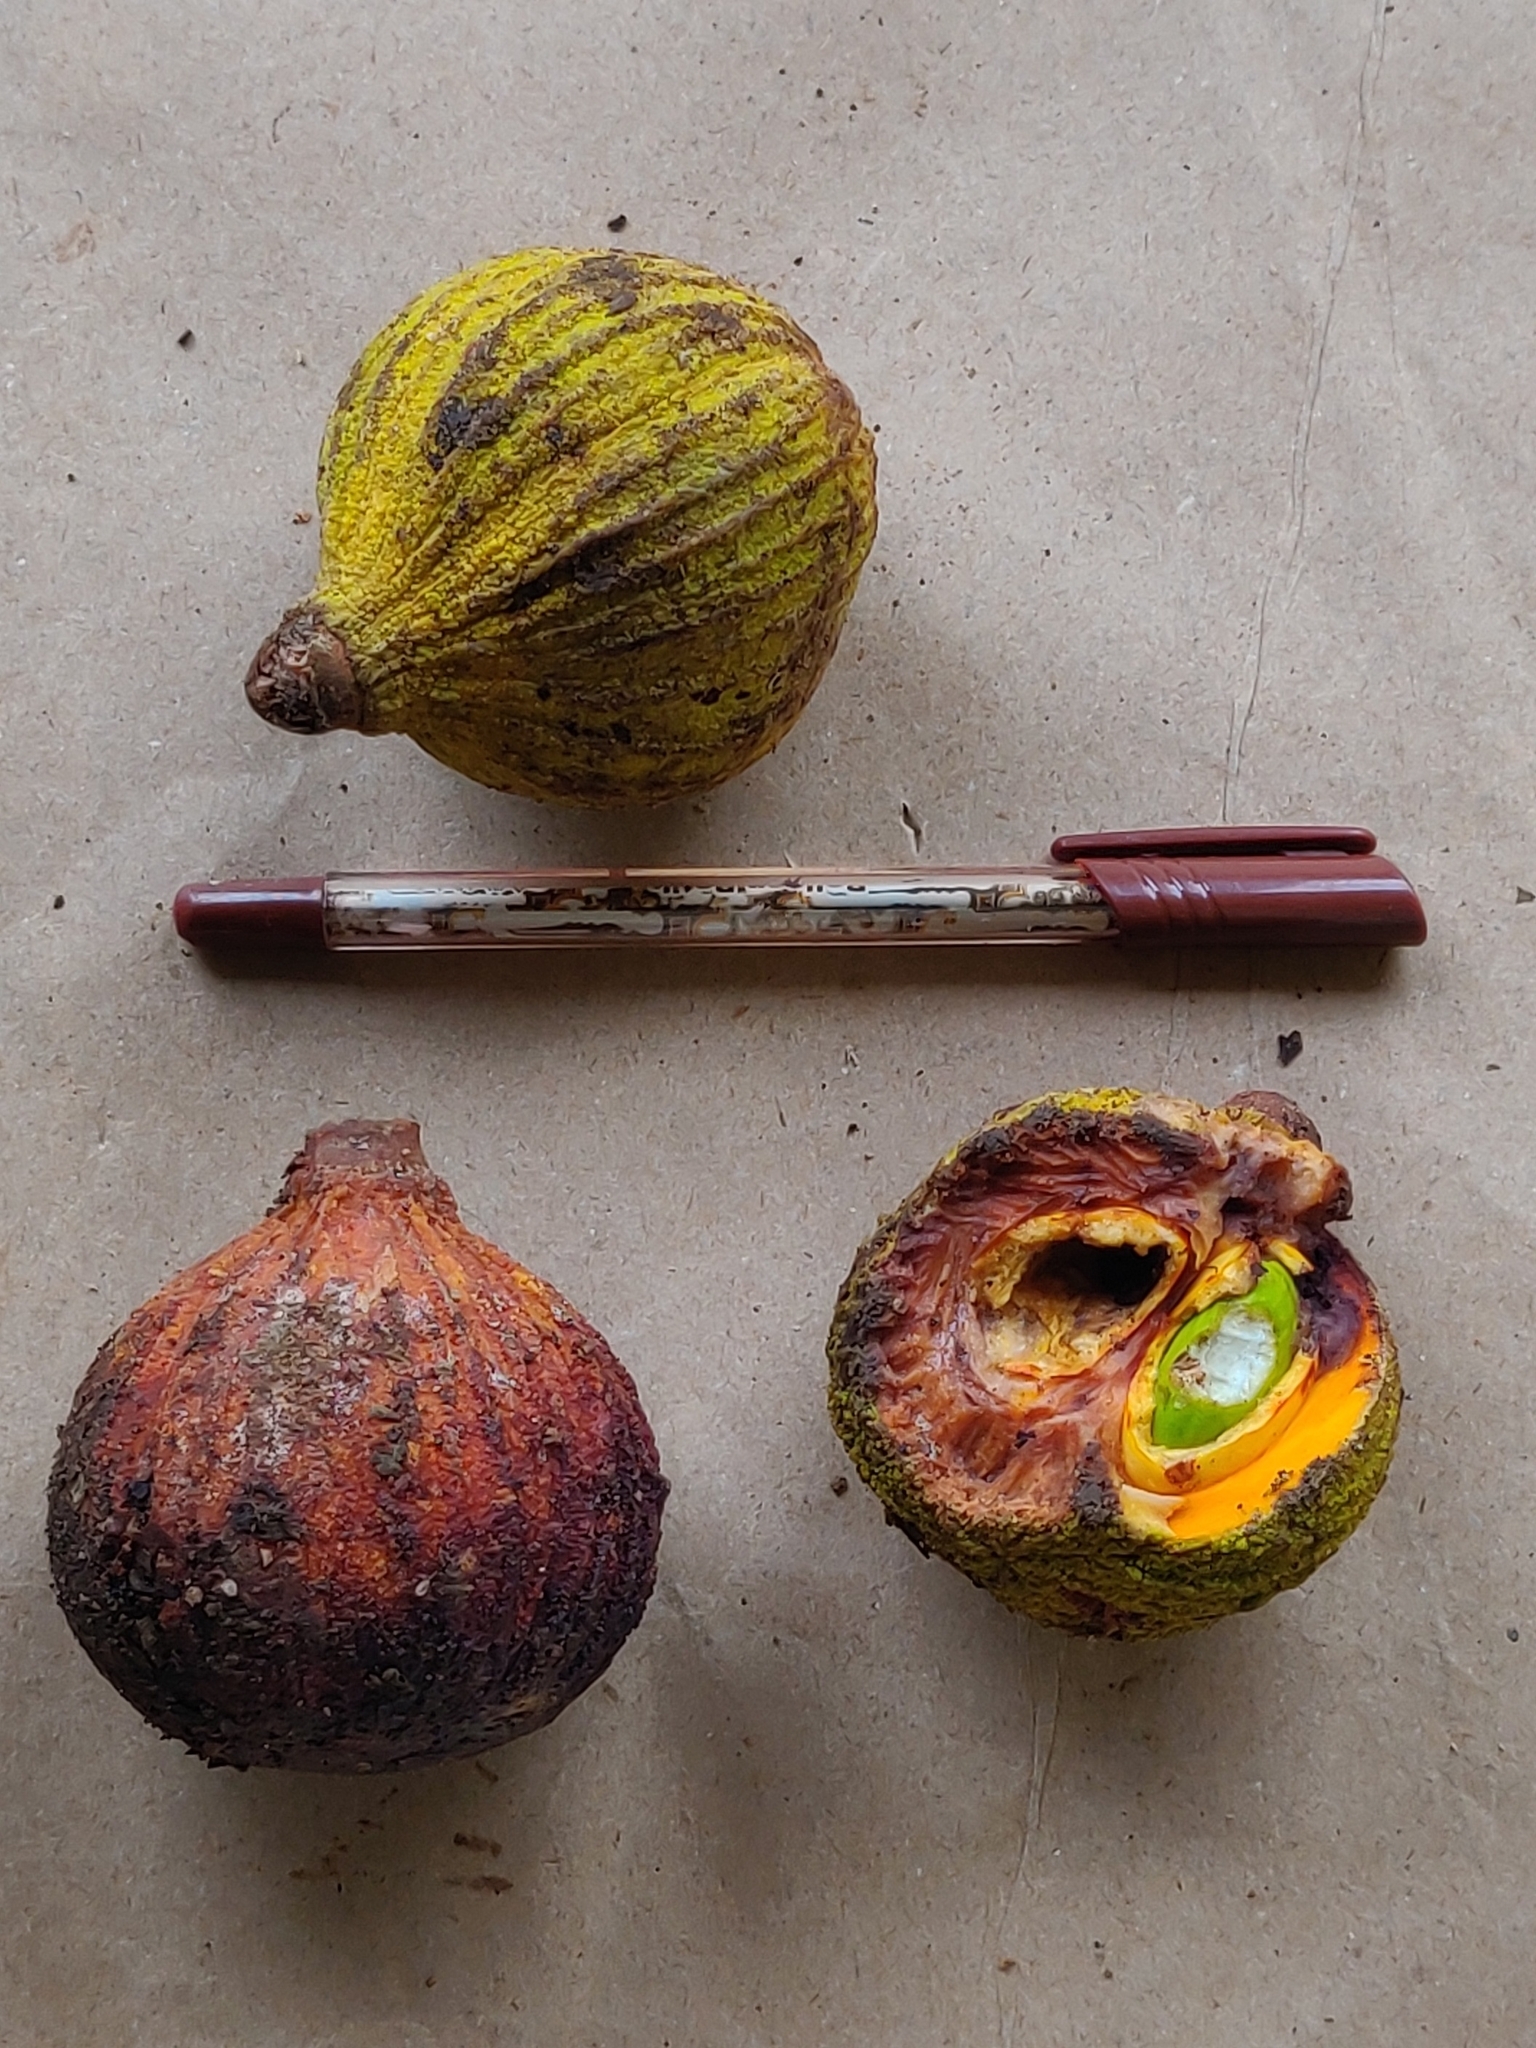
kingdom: Plantae
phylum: Tracheophyta
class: Magnoliopsida
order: Sapindales
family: Meliaceae
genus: Dysoxylum
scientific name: Dysoxylum malabaricum
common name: White cedar
